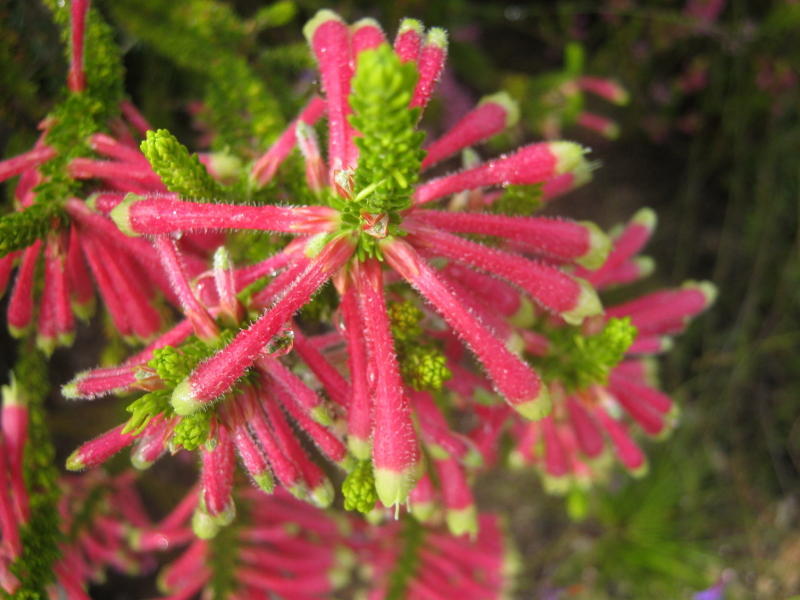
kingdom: Plantae
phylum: Tracheophyta
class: Magnoliopsida
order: Ericales
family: Ericaceae
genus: Erica
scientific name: Erica densifolia
